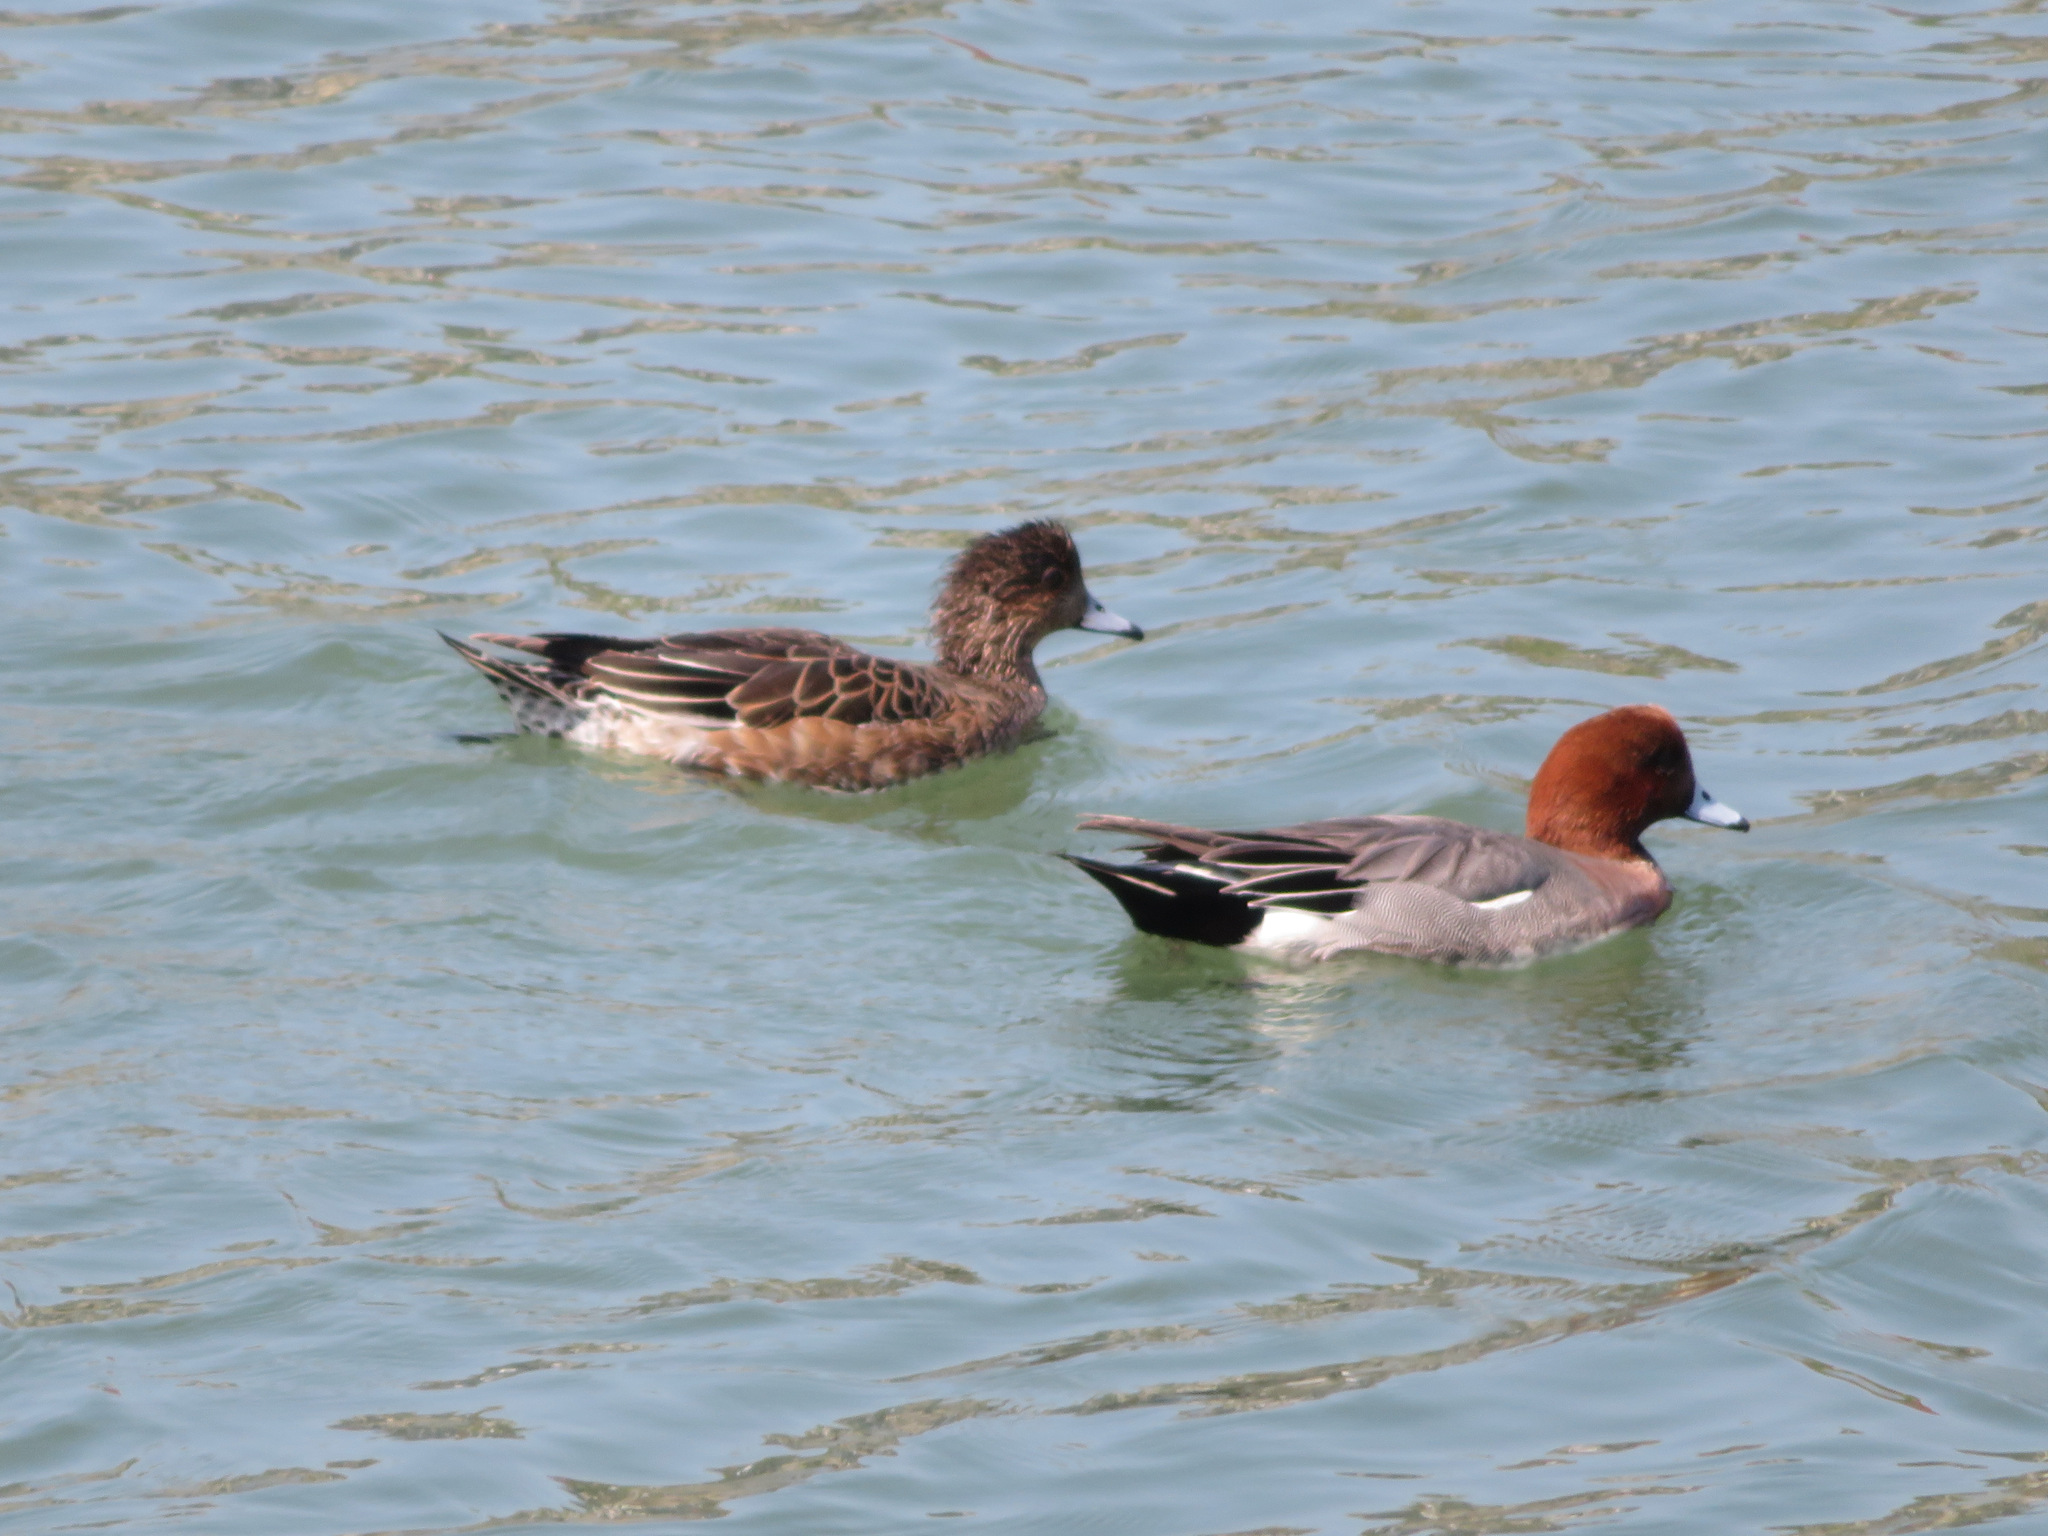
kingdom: Animalia
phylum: Chordata
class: Aves
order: Anseriformes
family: Anatidae
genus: Mareca
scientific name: Mareca penelope
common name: Eurasian wigeon
